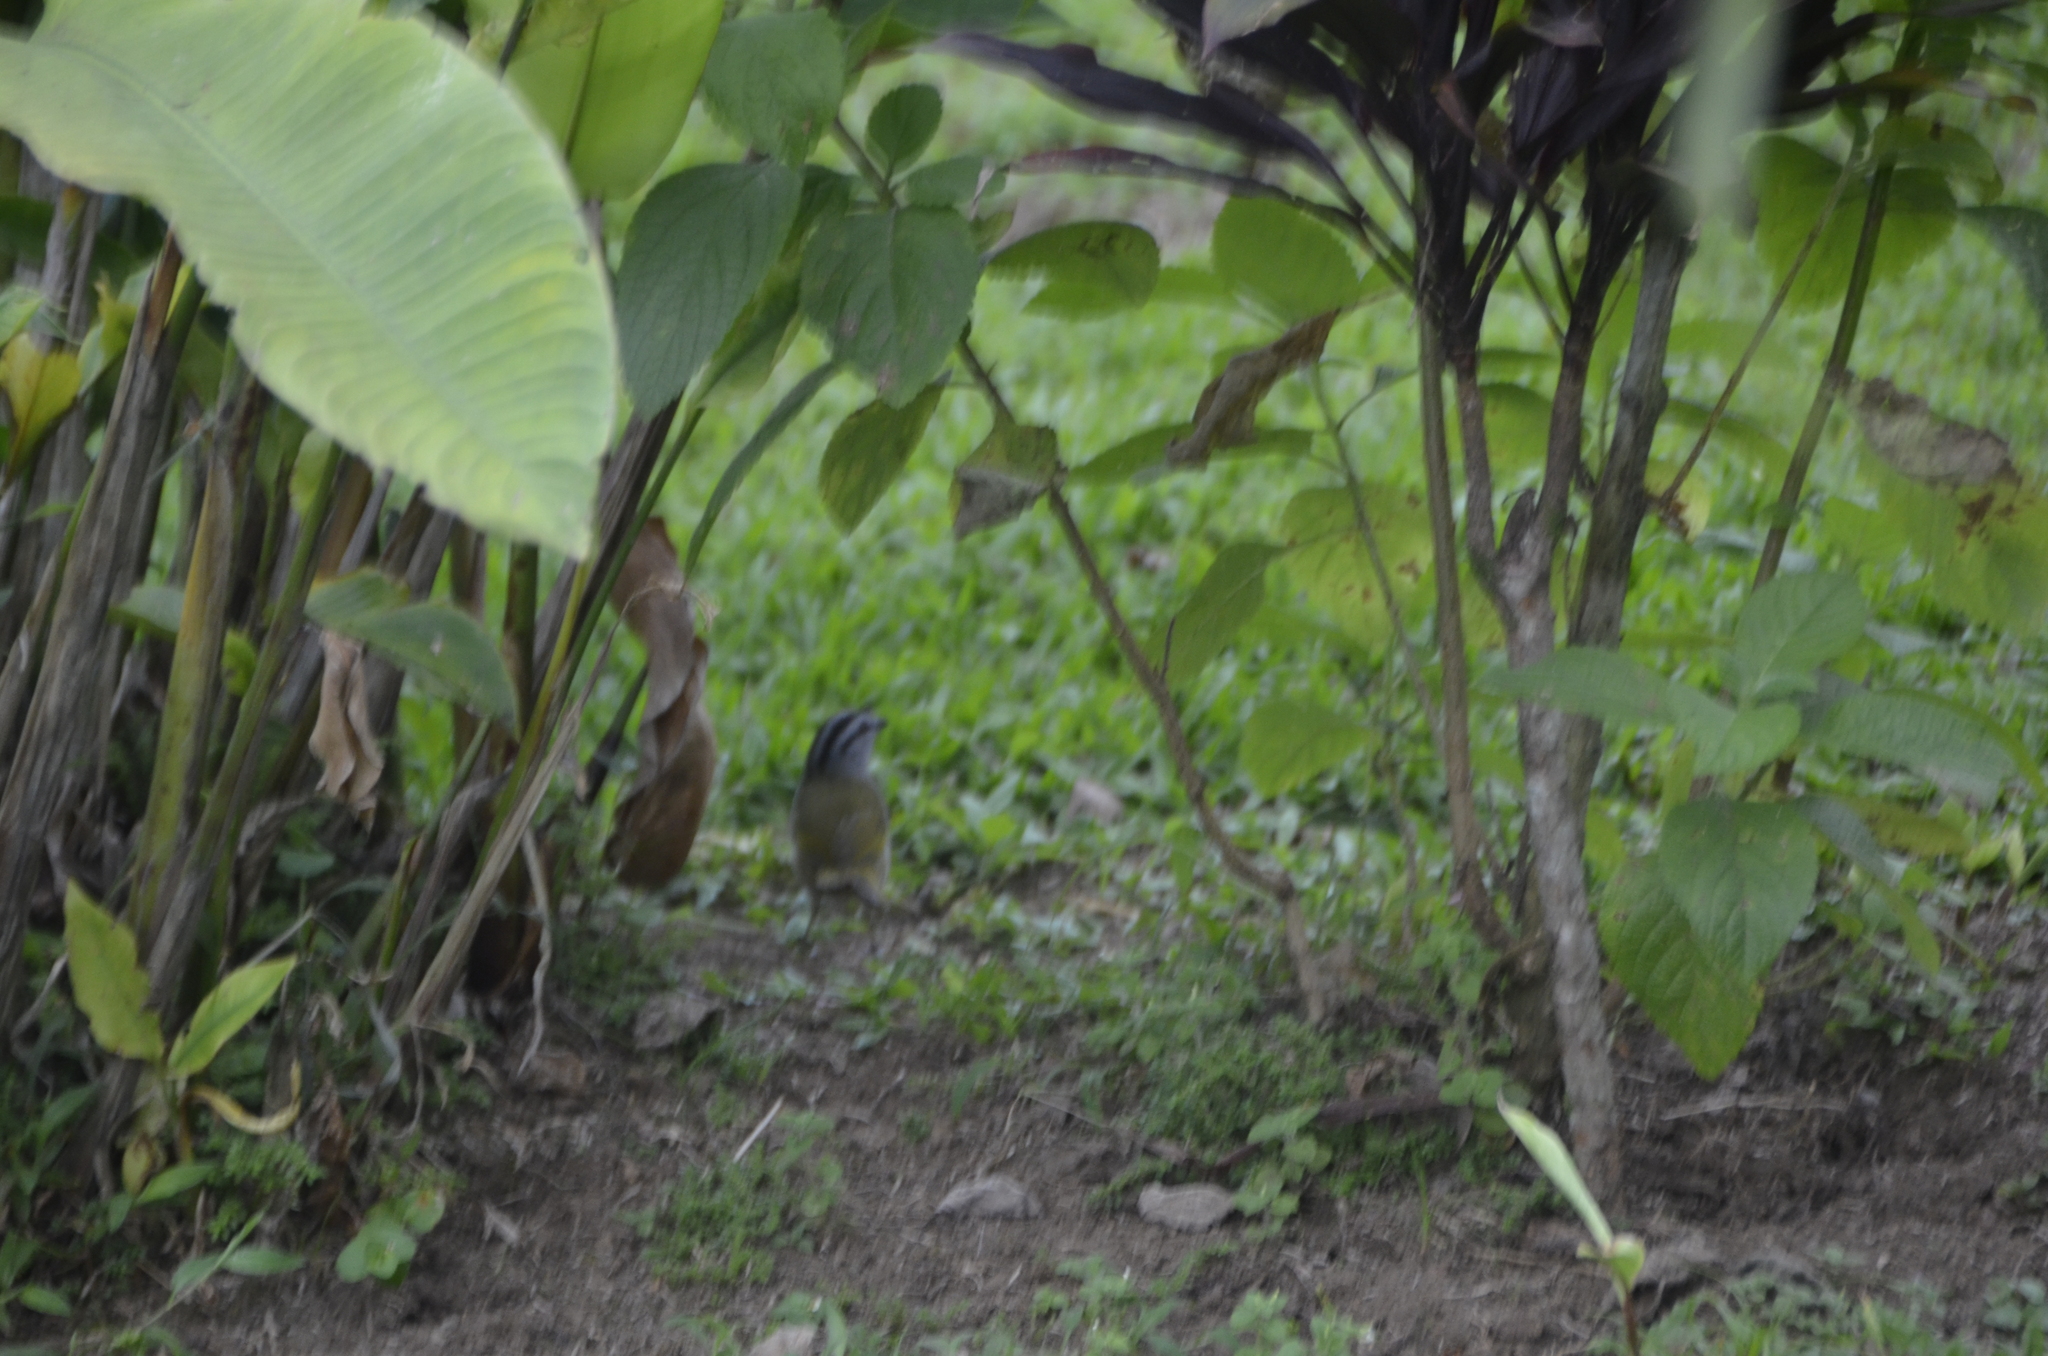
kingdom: Animalia
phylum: Chordata
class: Aves
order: Passeriformes
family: Passerellidae
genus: Arremonops
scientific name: Arremonops conirostris
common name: Black-striped sparrow
